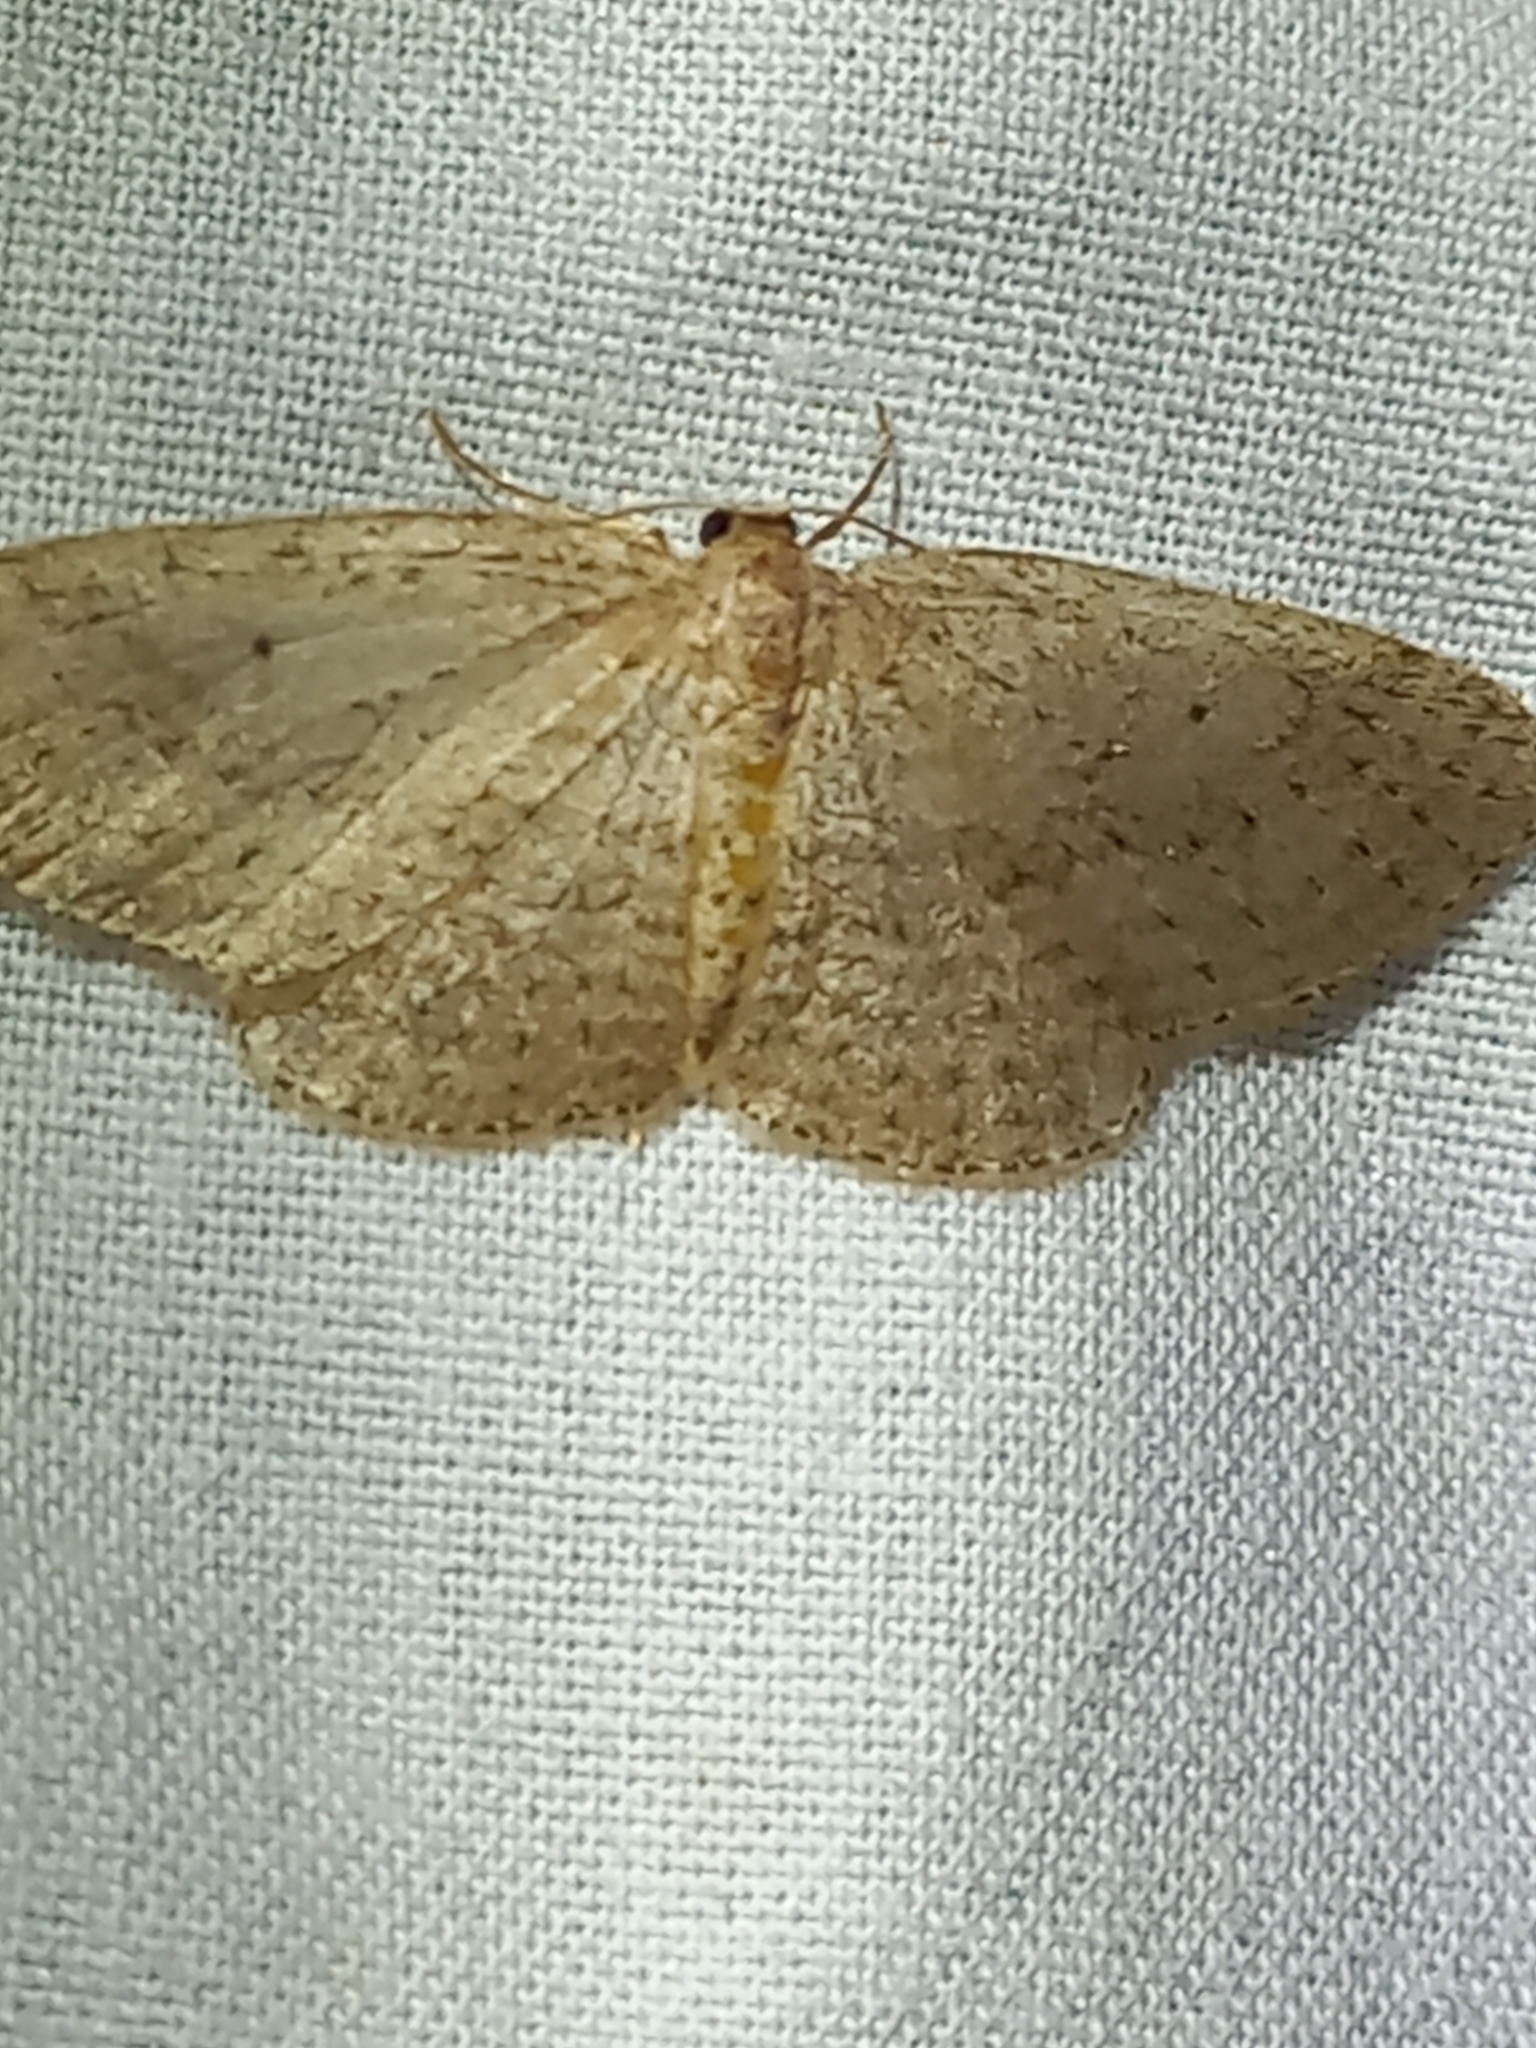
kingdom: Animalia
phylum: Arthropoda
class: Insecta
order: Lepidoptera
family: Geometridae
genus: Poecilasthena
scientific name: Poecilasthena schistaria
